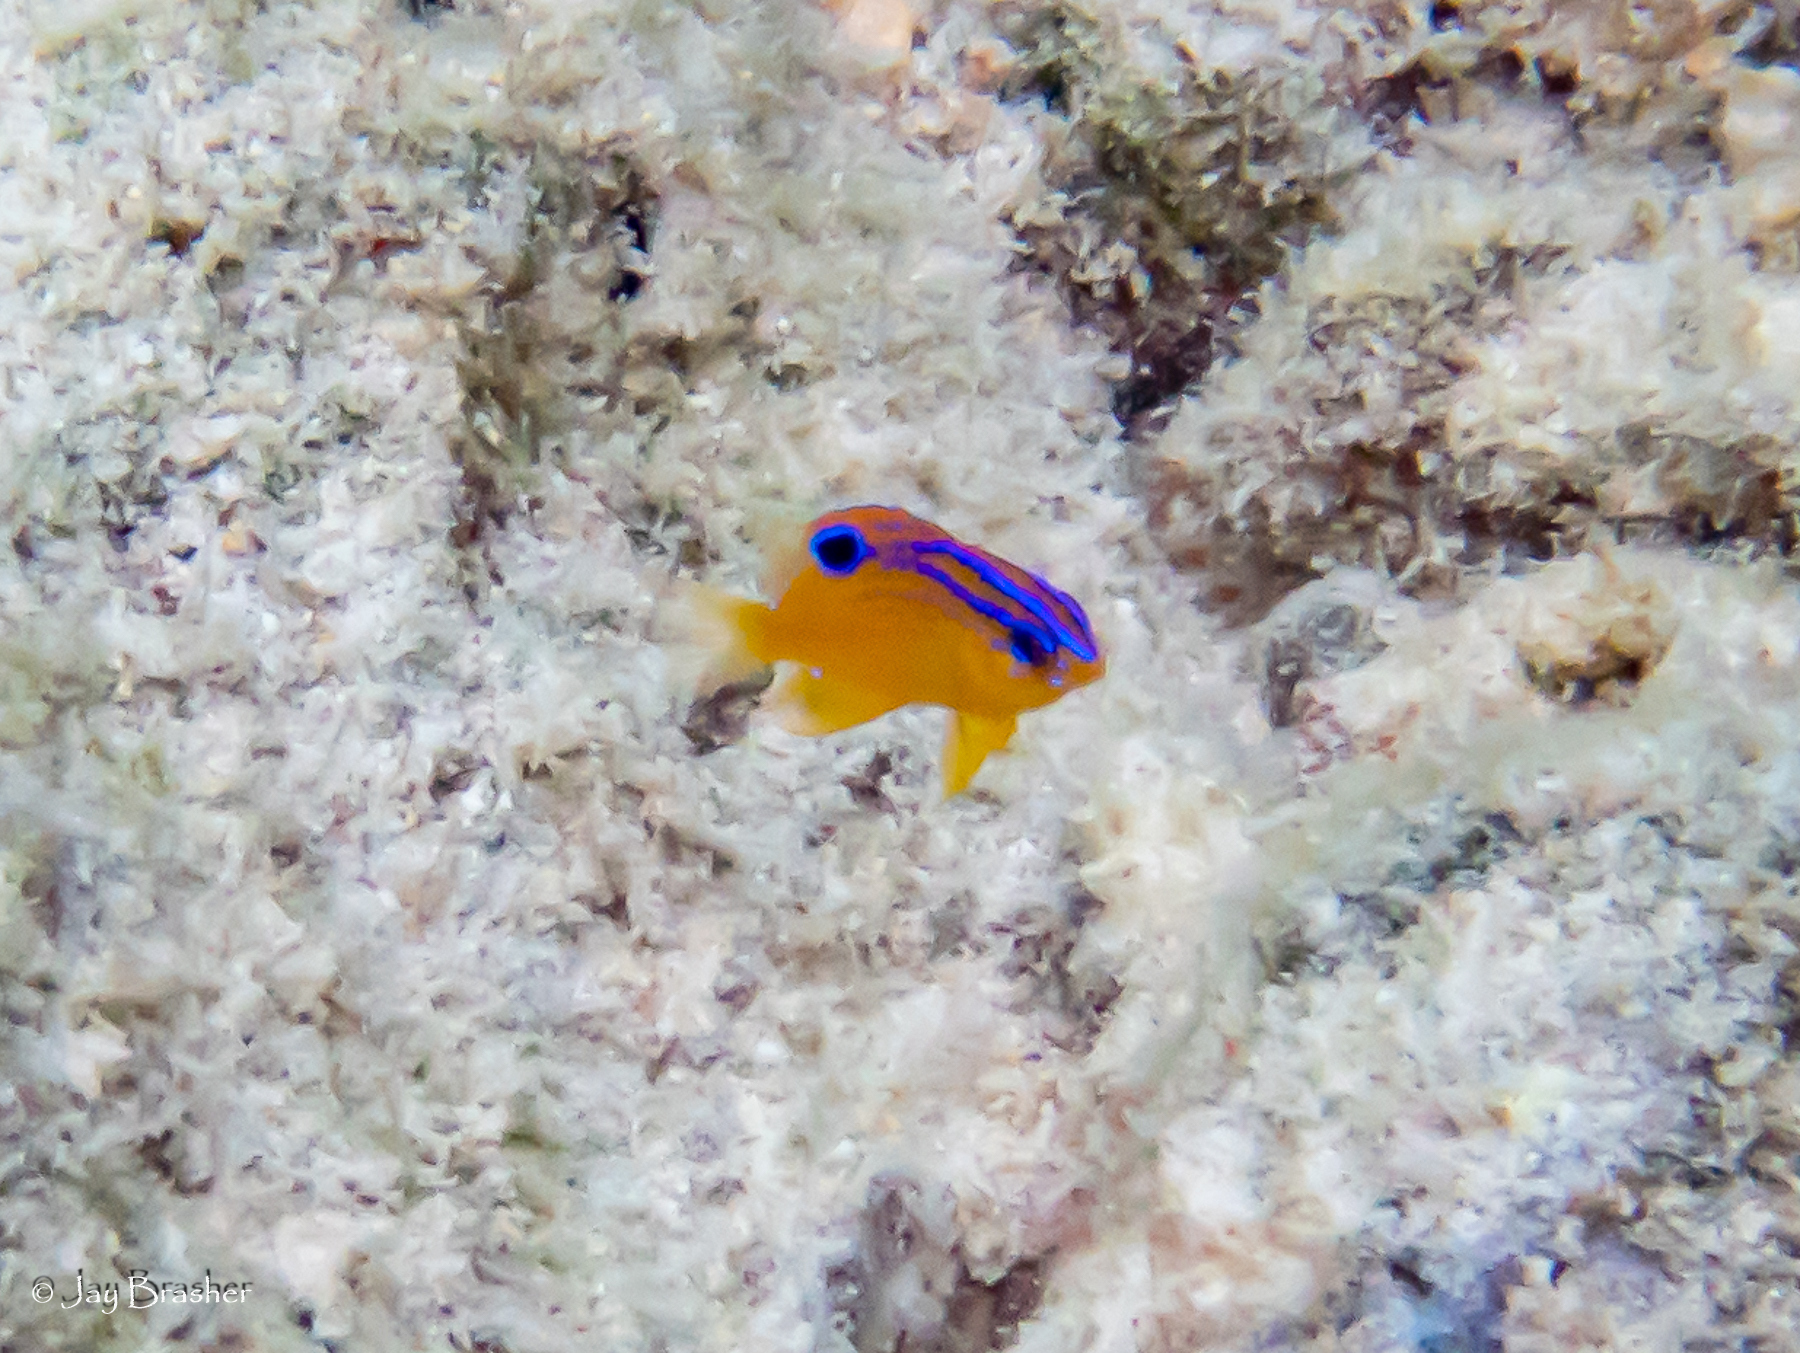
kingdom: Animalia
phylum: Chordata
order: Perciformes
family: Pomacentridae
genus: Stegastes
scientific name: Stegastes diencaeus
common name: Longfin damselfish
